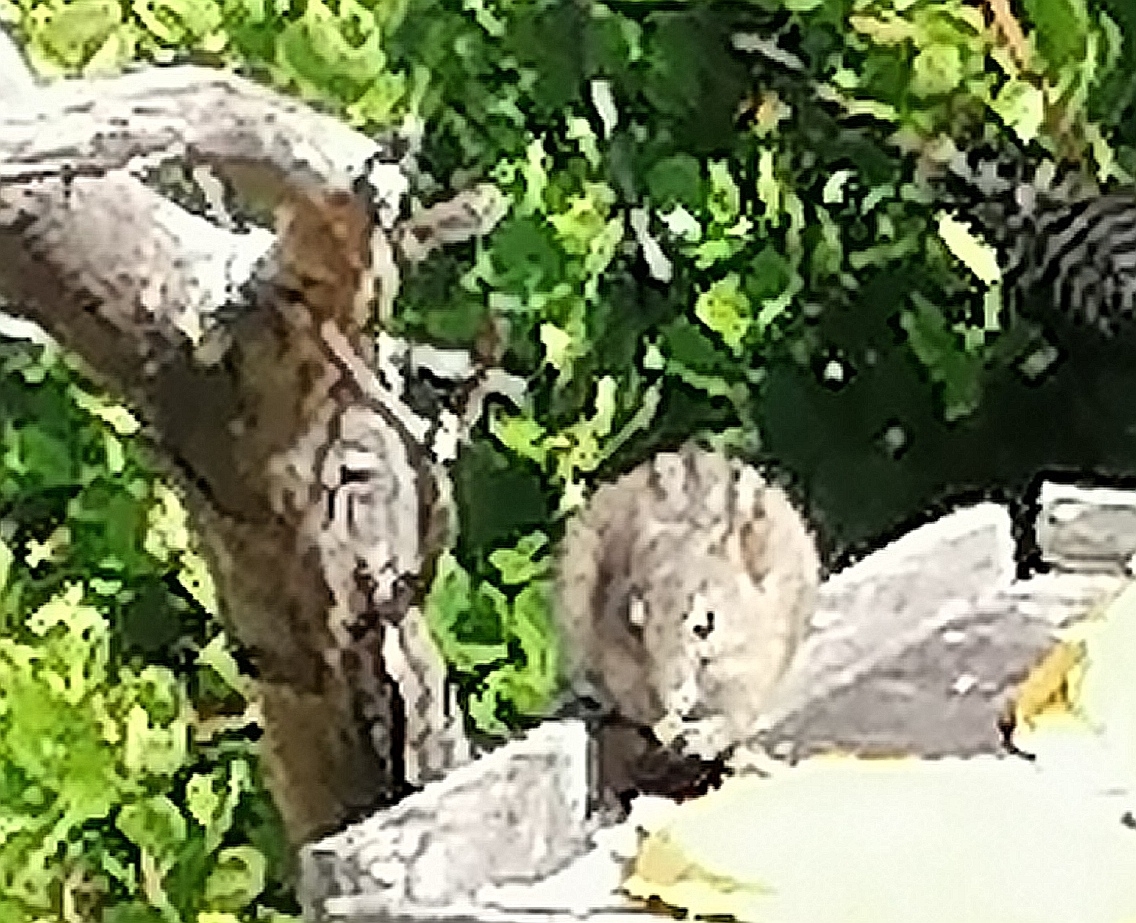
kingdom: Animalia
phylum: Chordata
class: Mammalia
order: Rodentia
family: Muridae
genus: Rhabdomys
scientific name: Rhabdomys pumilio
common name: Xeric four-striped grass rat
